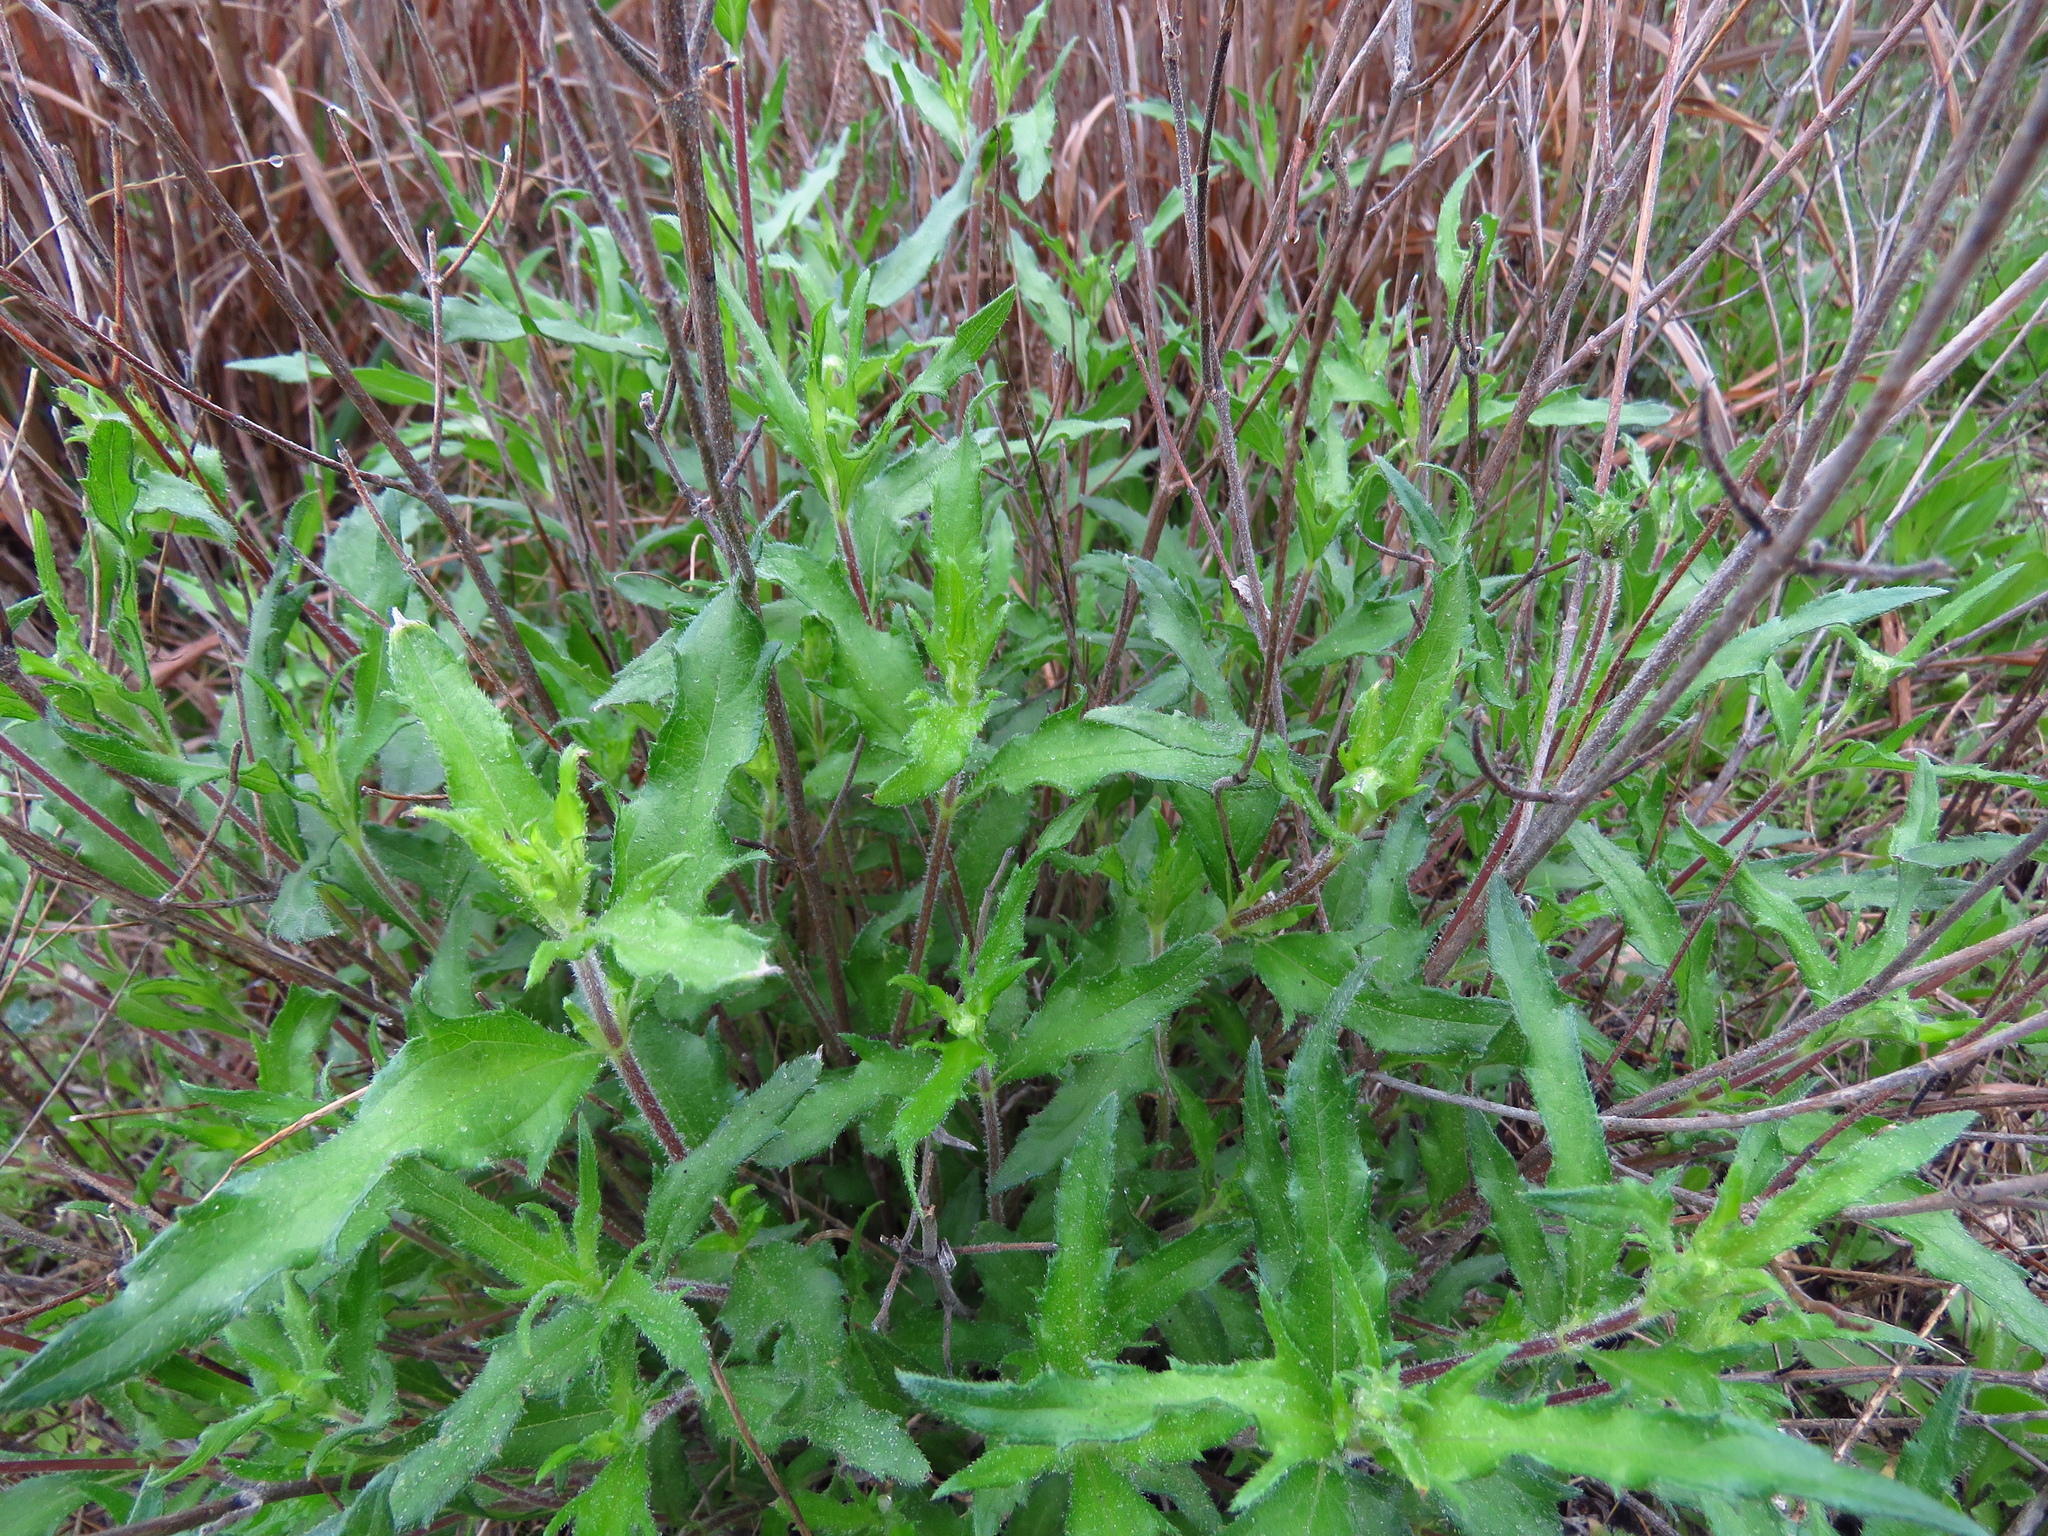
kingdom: Plantae
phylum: Tracheophyta
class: Magnoliopsida
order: Asterales
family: Asteraceae
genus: Wedelia
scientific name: Wedelia acapulcensis
